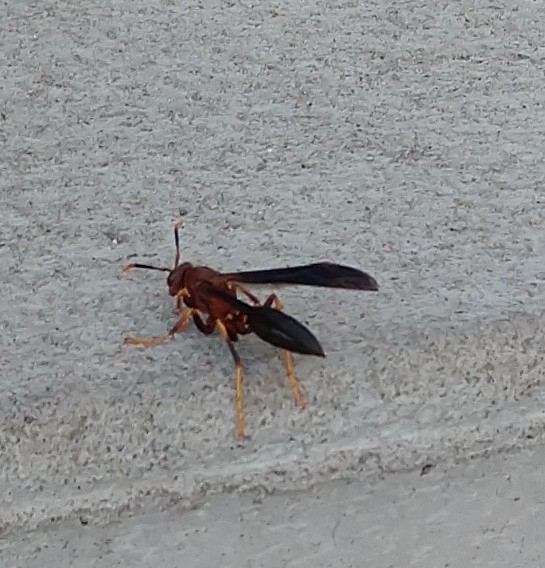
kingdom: Animalia
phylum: Arthropoda
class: Insecta
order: Hymenoptera
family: Eumenidae
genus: Polistes
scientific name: Polistes annularis
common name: Ringed paper wasp
